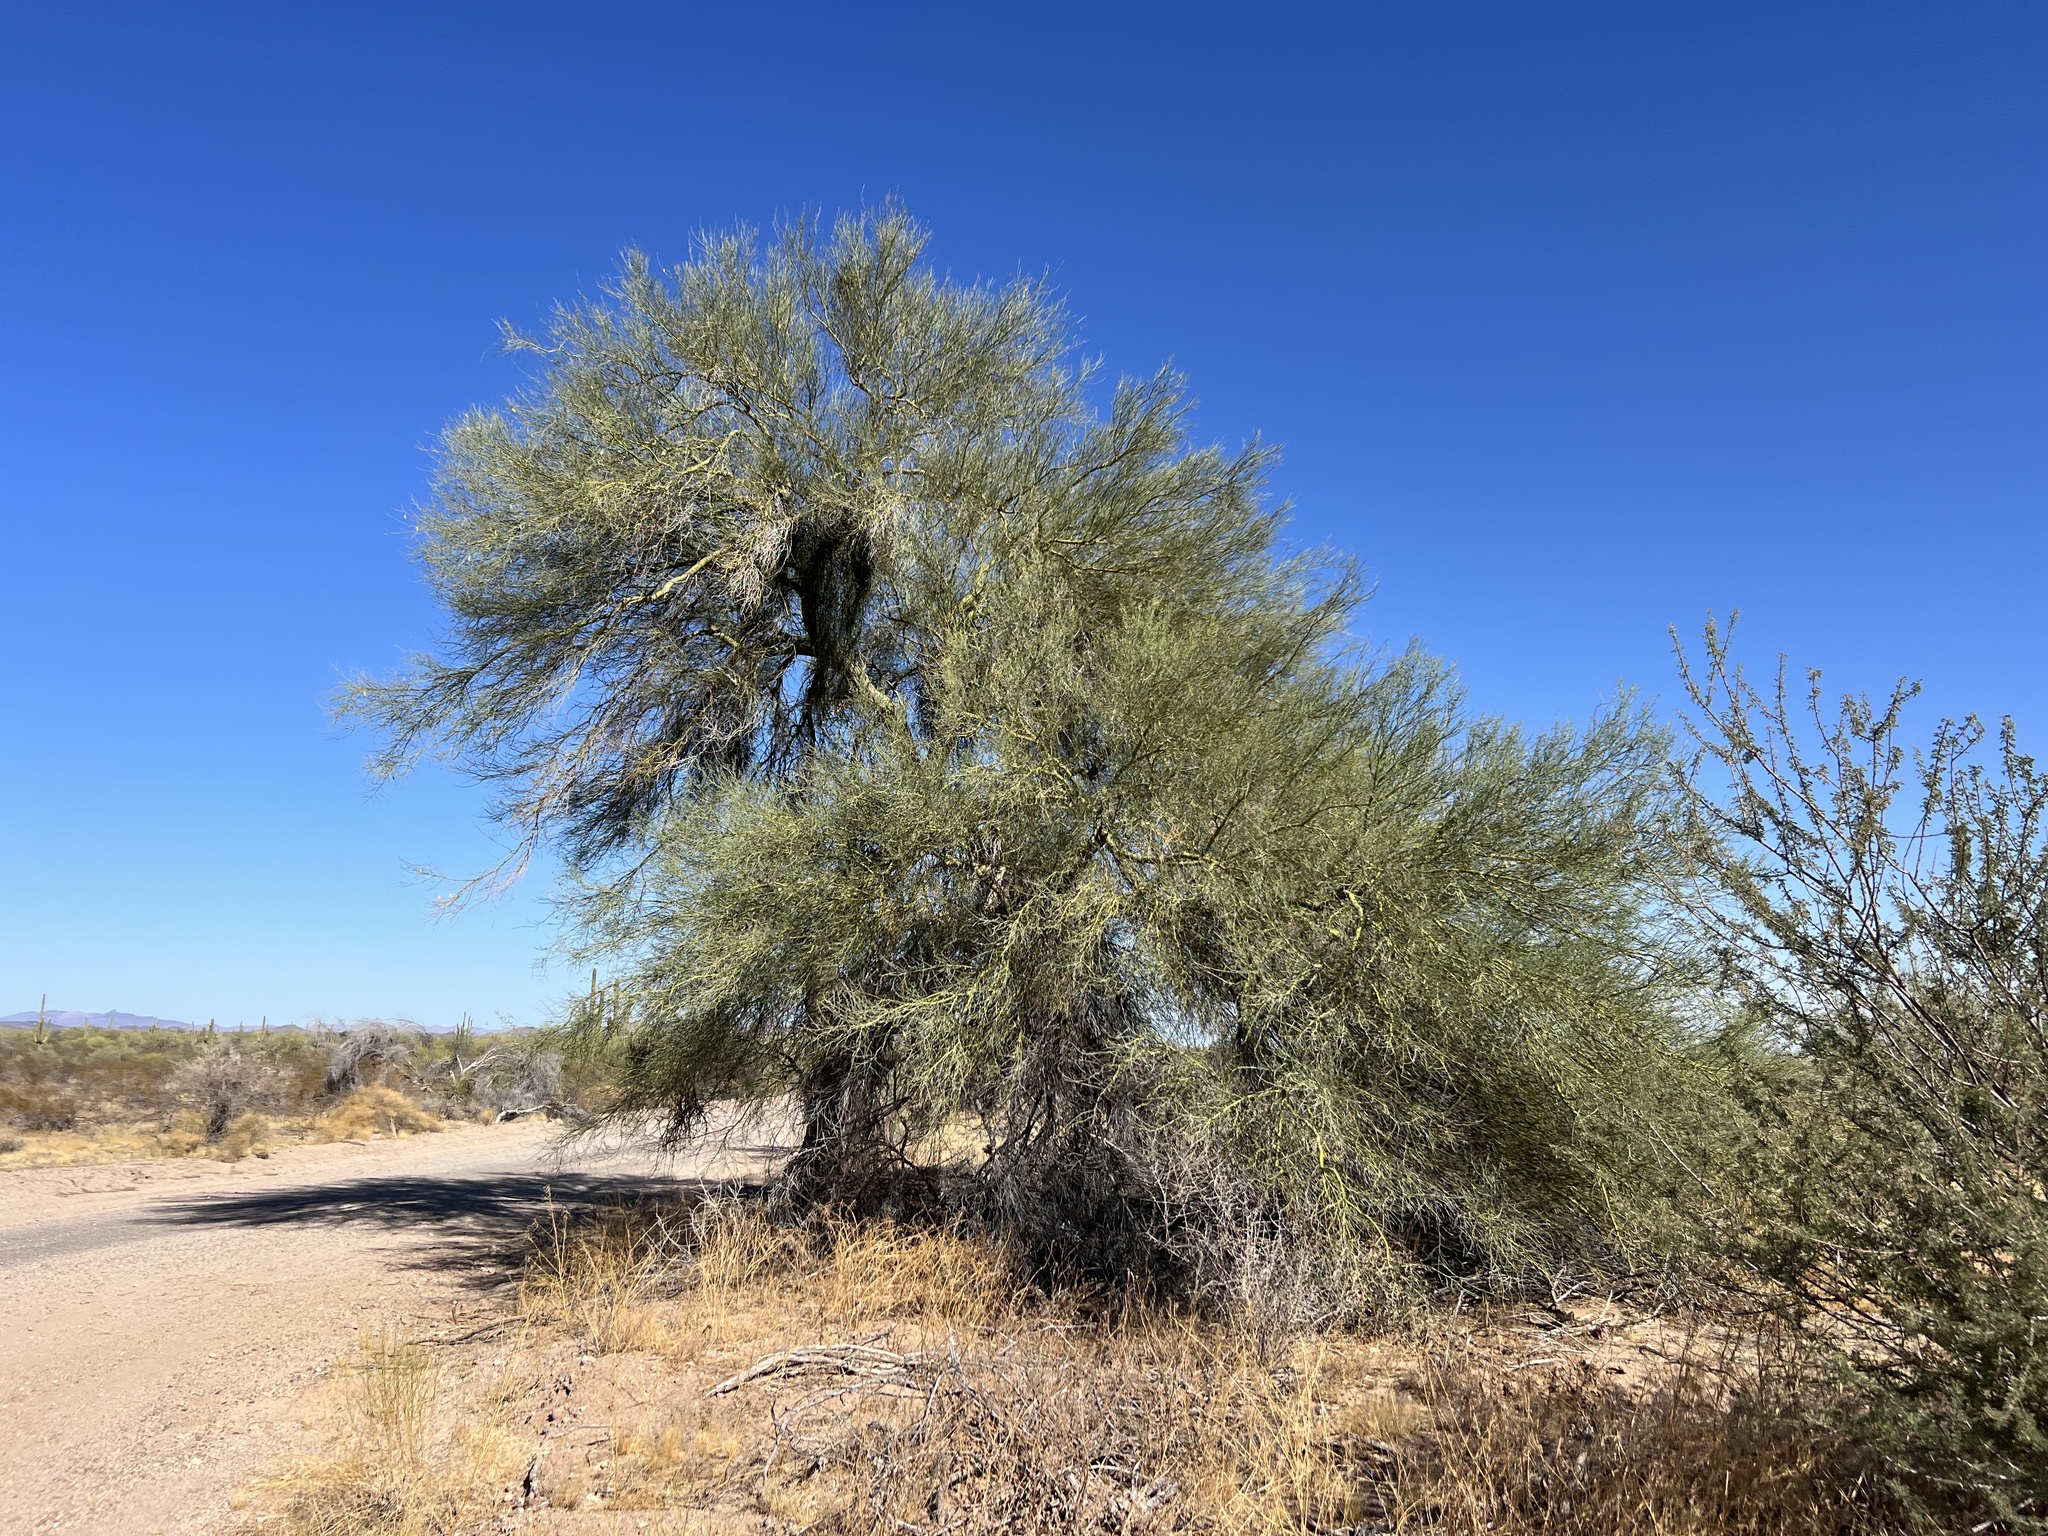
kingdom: Plantae
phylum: Tracheophyta
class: Magnoliopsida
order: Fabales
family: Fabaceae
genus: Parkinsonia
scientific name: Parkinsonia florida
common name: Blue paloverde
